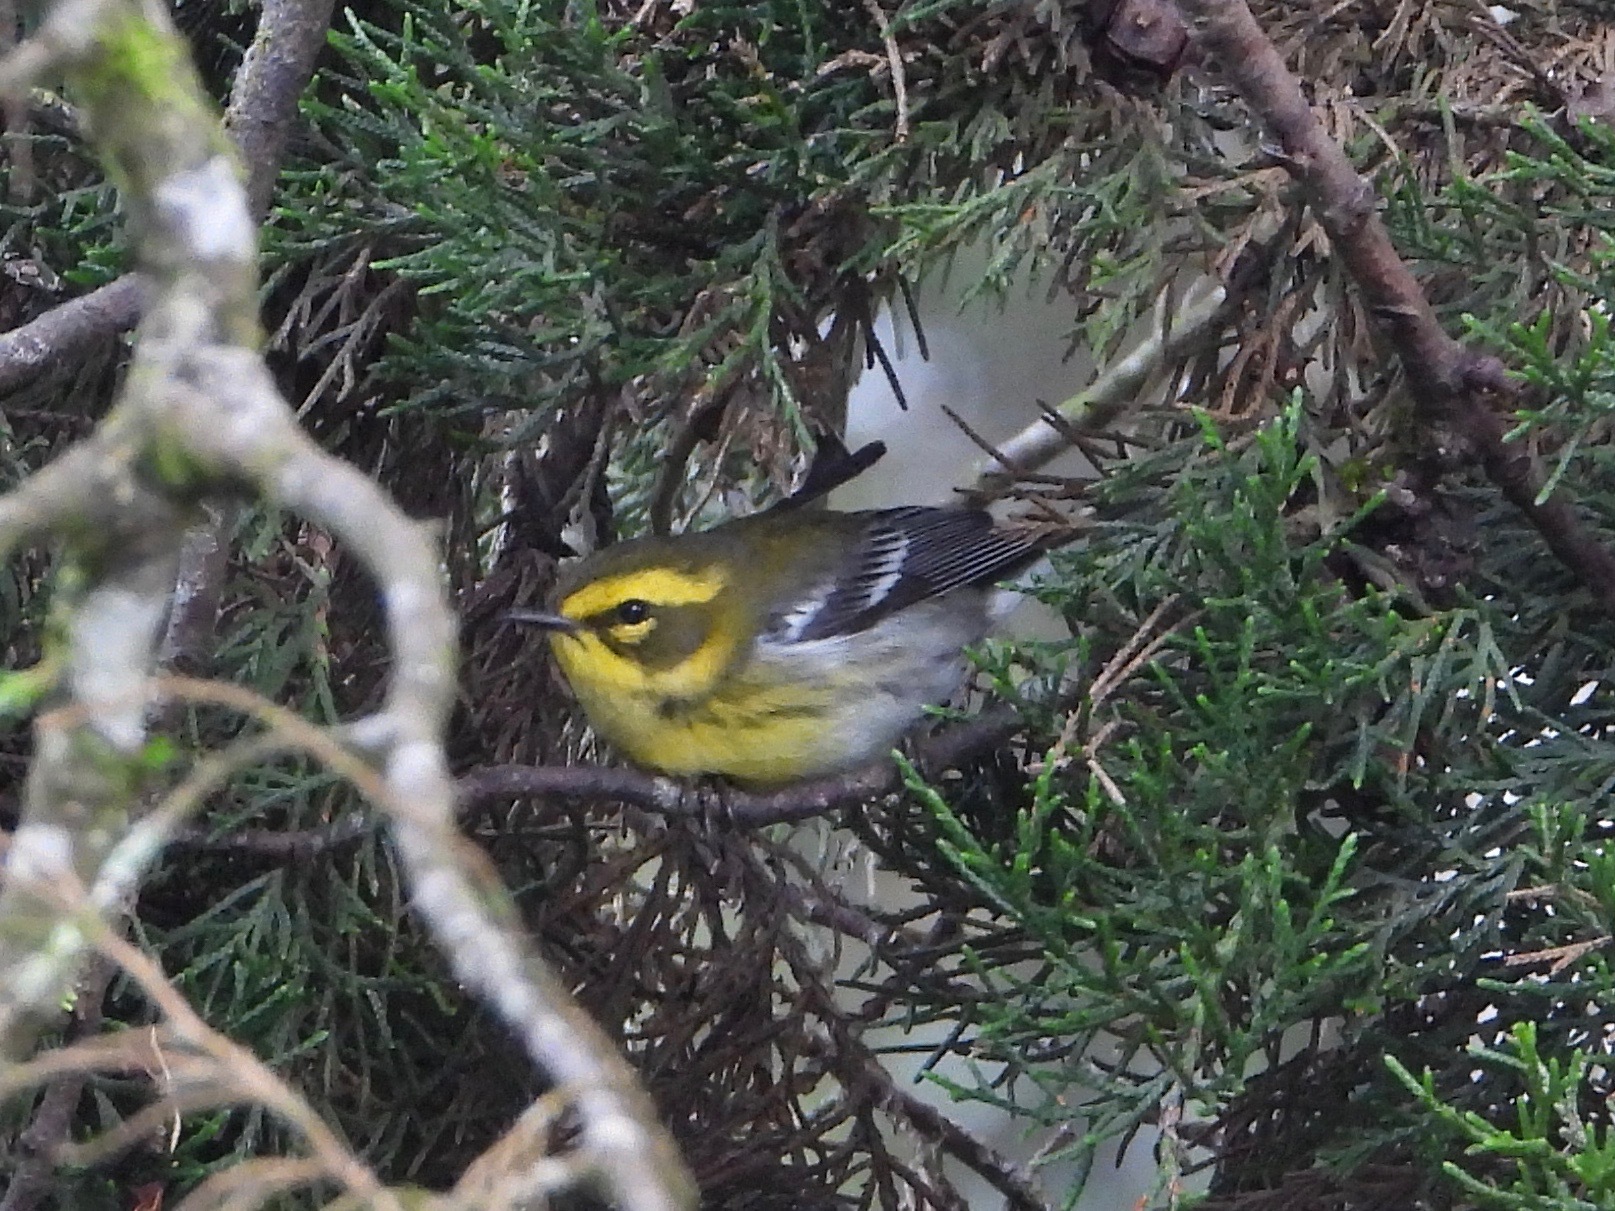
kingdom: Animalia
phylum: Chordata
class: Aves
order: Passeriformes
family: Parulidae
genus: Setophaga
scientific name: Setophaga townsendi
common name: Townsend's warbler
